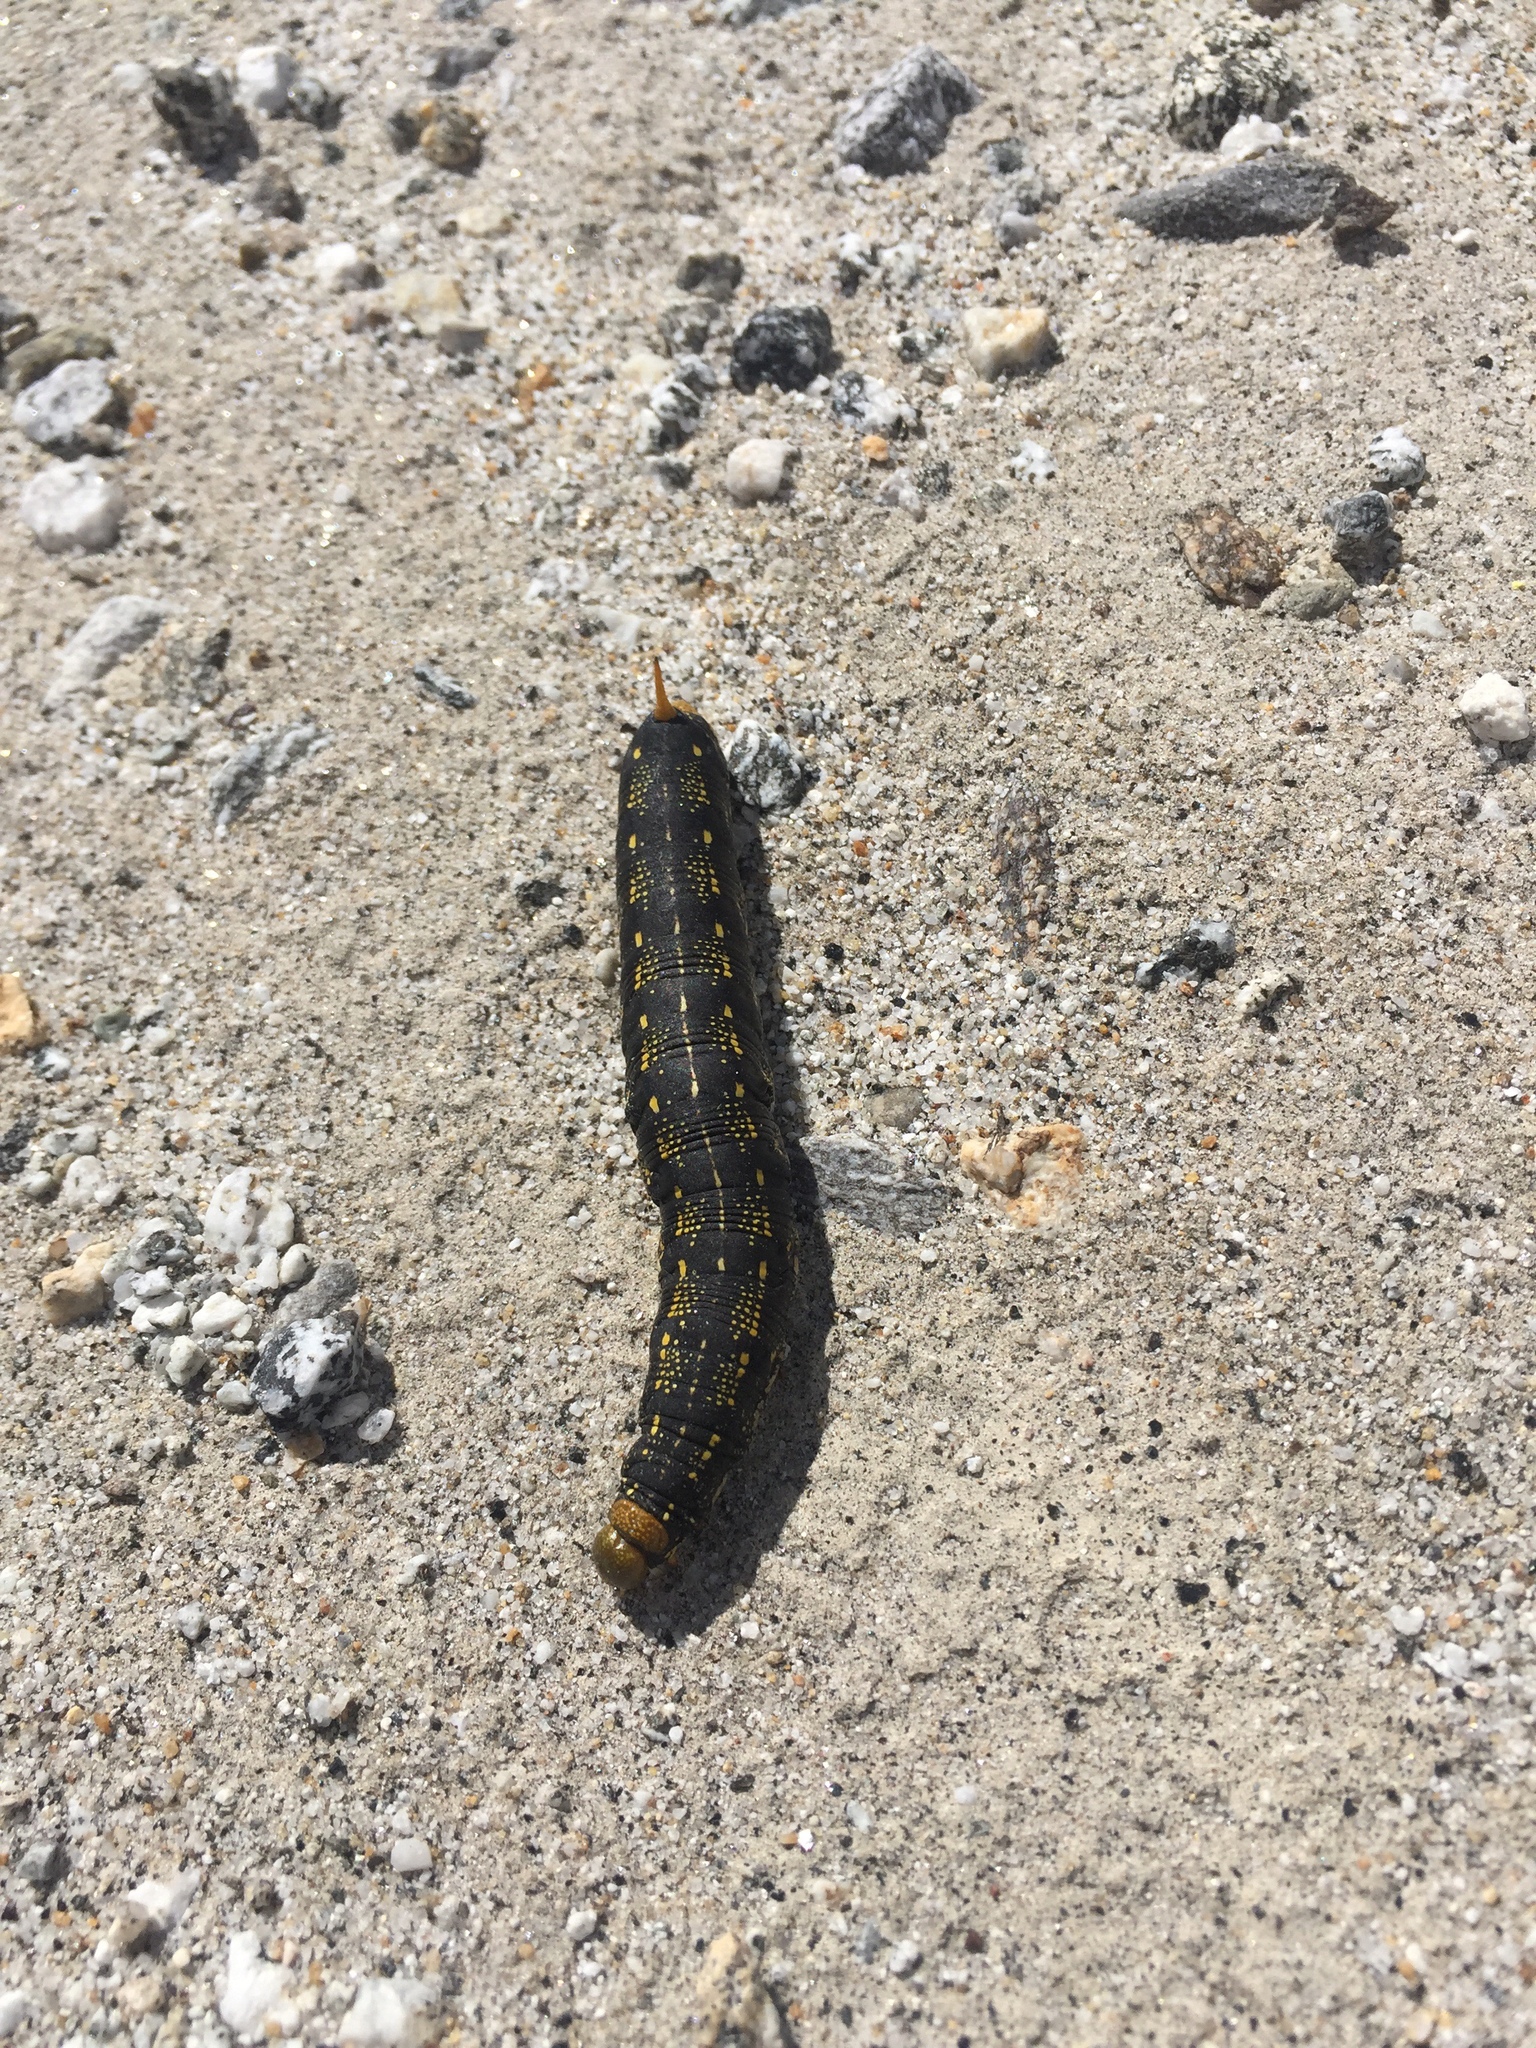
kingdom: Animalia
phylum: Arthropoda
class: Insecta
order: Lepidoptera
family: Sphingidae
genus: Hyles
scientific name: Hyles lineata
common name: White-lined sphinx
